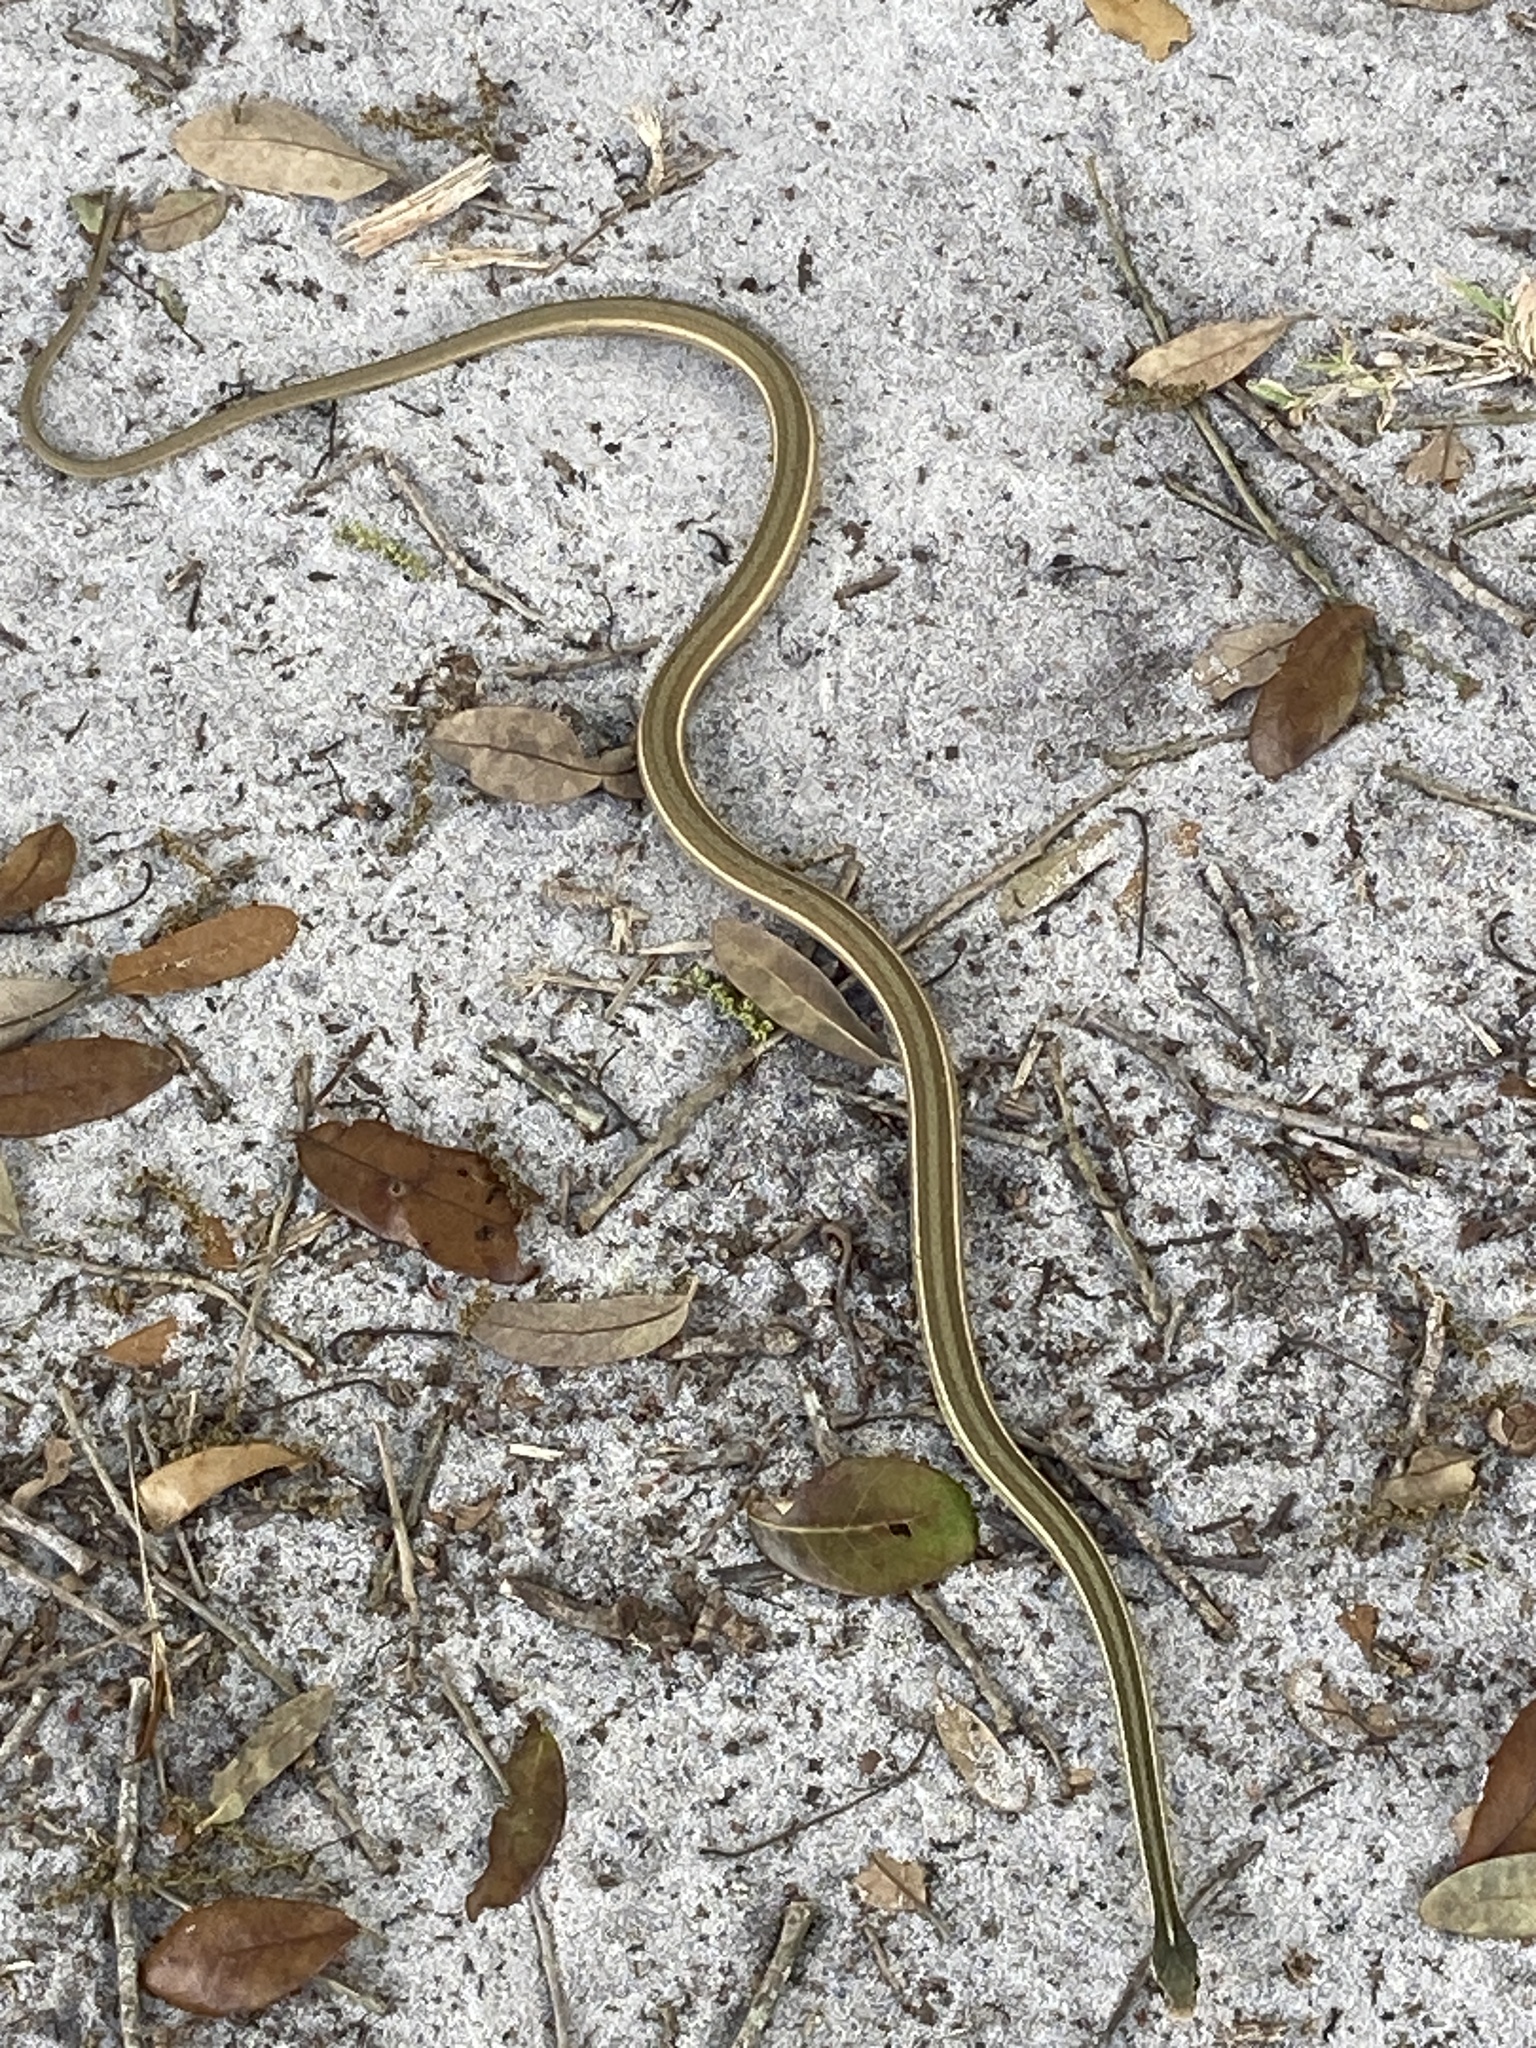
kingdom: Animalia
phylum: Chordata
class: Squamata
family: Colubridae
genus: Thamnophis
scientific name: Thamnophis saurita
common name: Eastern ribbonsnake
